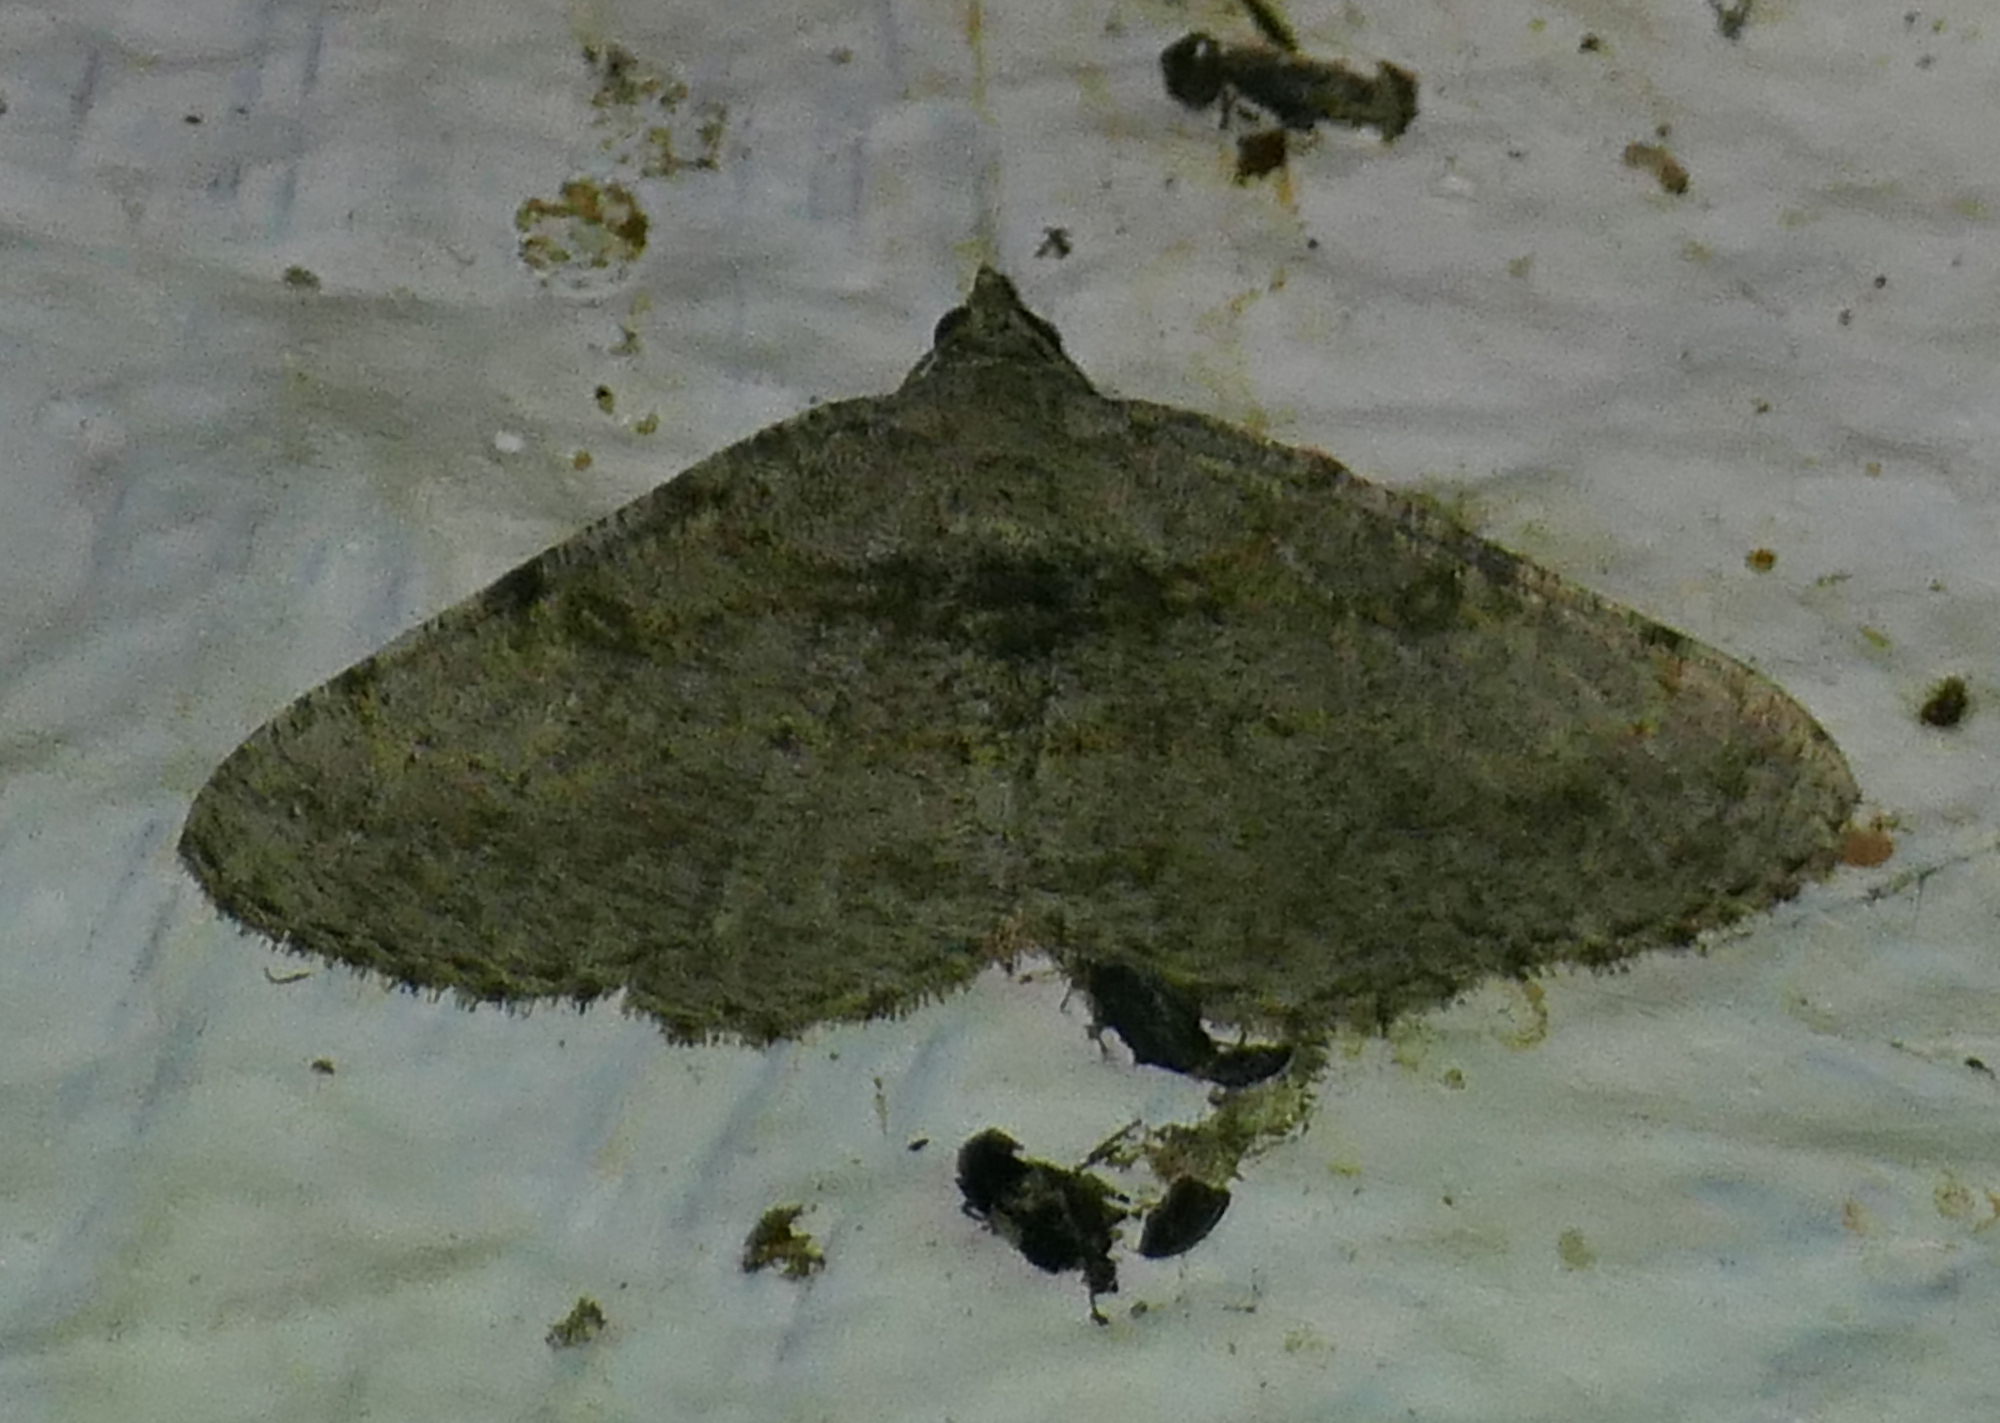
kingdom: Animalia
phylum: Arthropoda
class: Insecta
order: Lepidoptera
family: Geometridae
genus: Digrammia
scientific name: Digrammia gnophosaria
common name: Hollow-spotted angle
